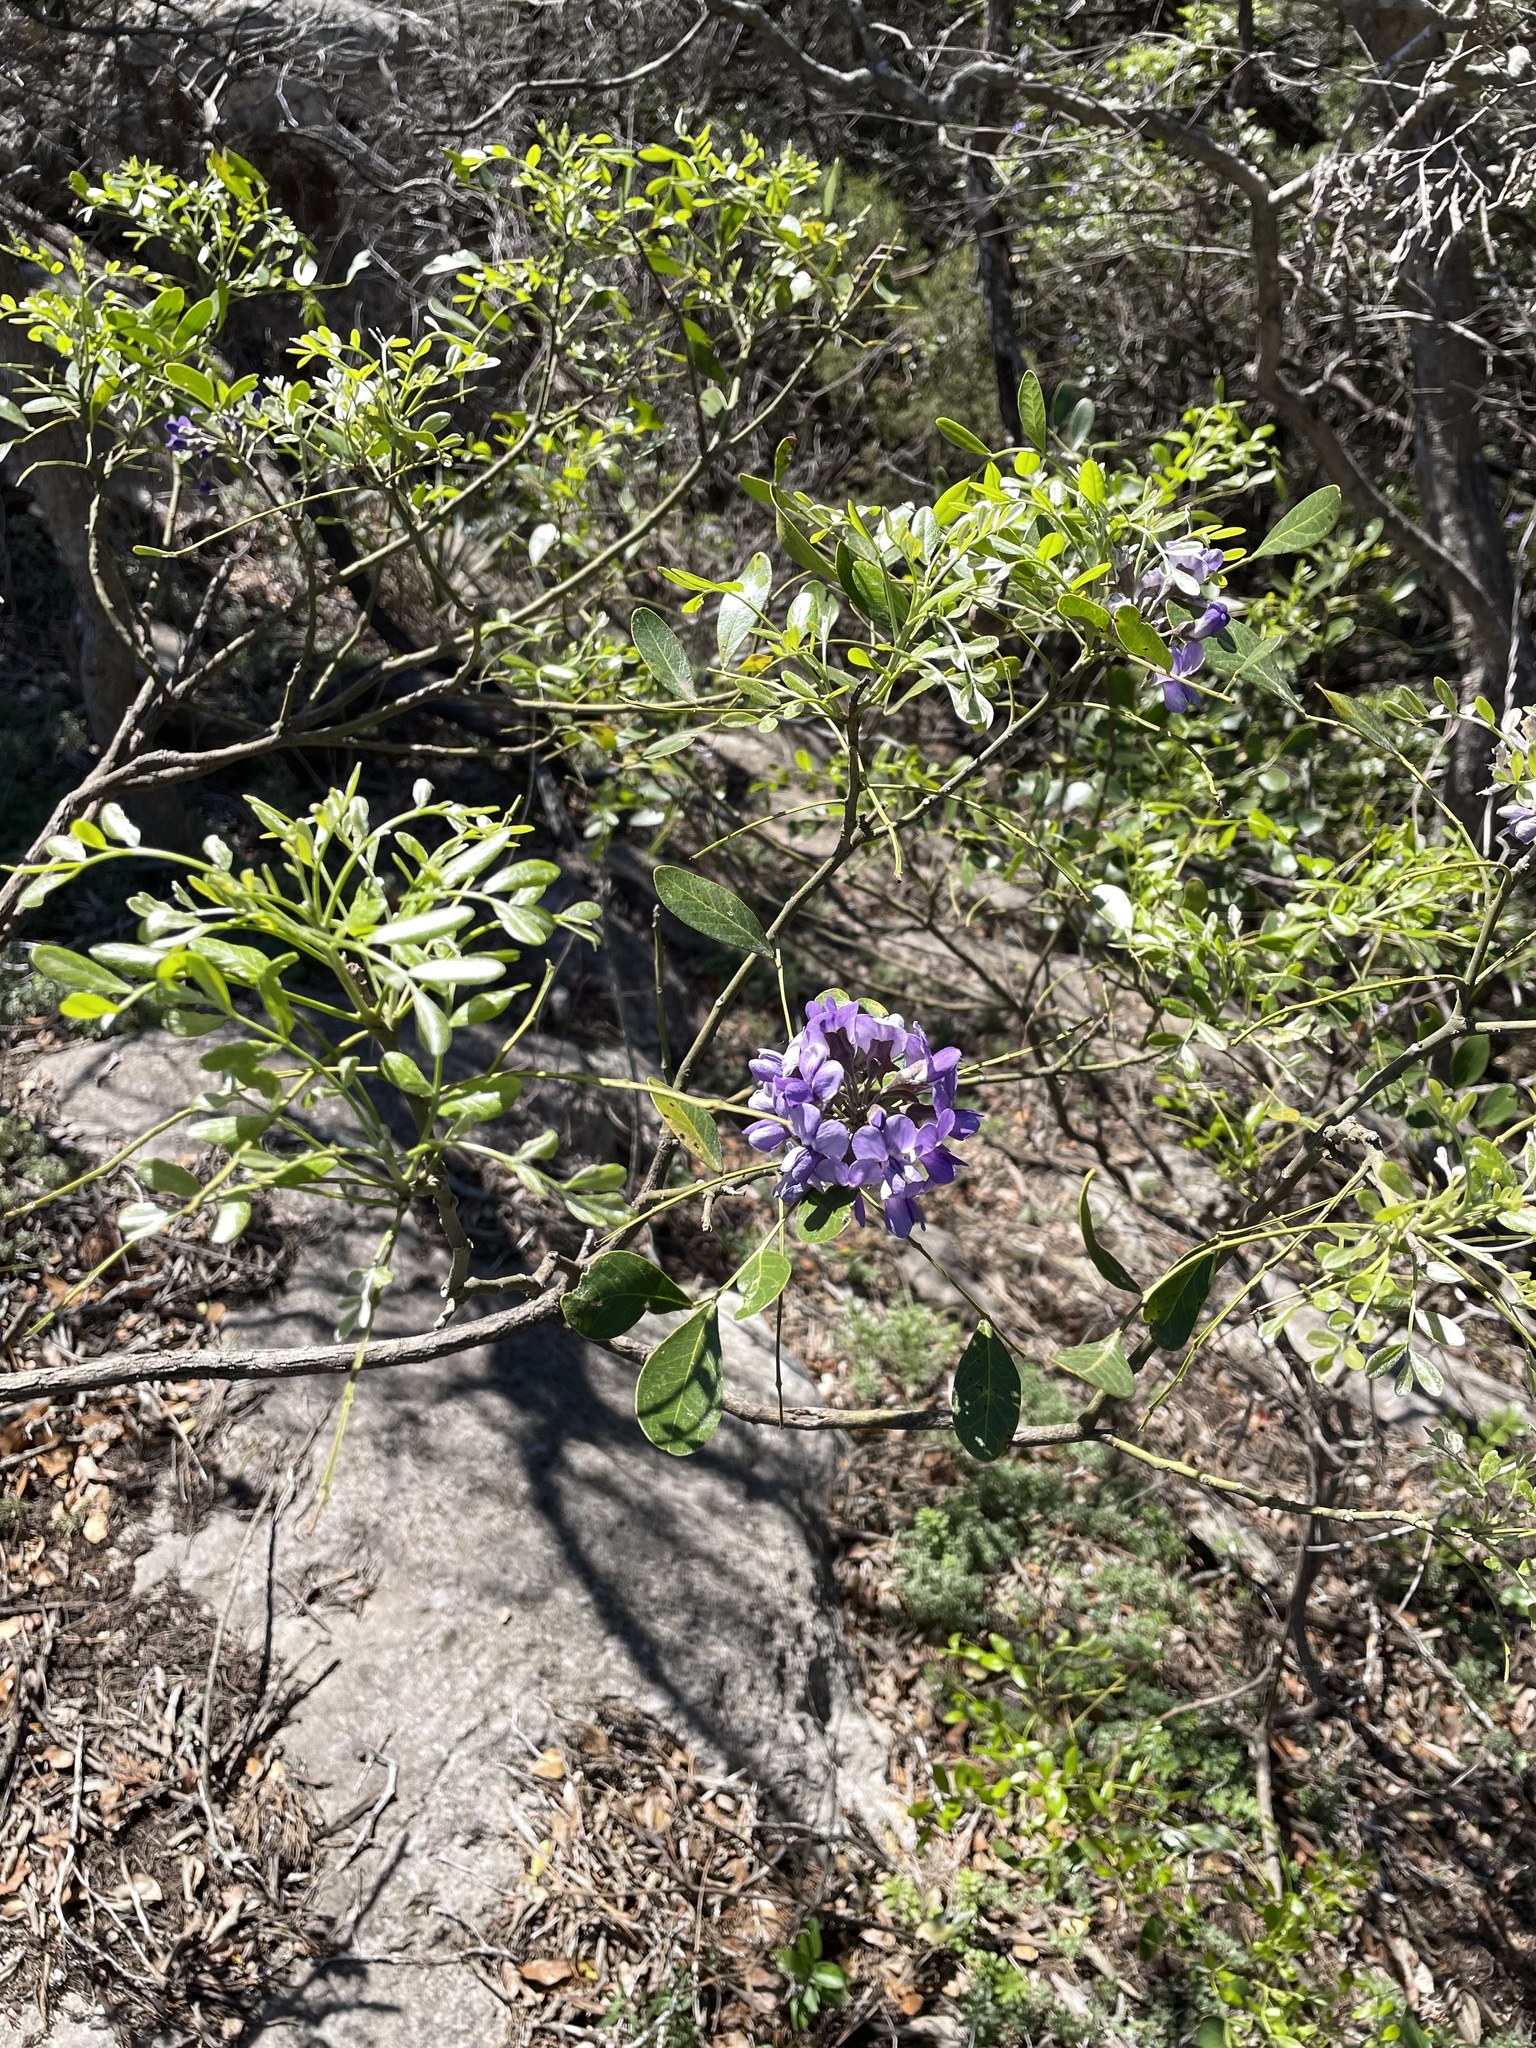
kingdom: Plantae
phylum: Tracheophyta
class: Magnoliopsida
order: Fabales
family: Fabaceae
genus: Dermatophyllum
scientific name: Dermatophyllum secundiflorum
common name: Texas-mountain-laurel
